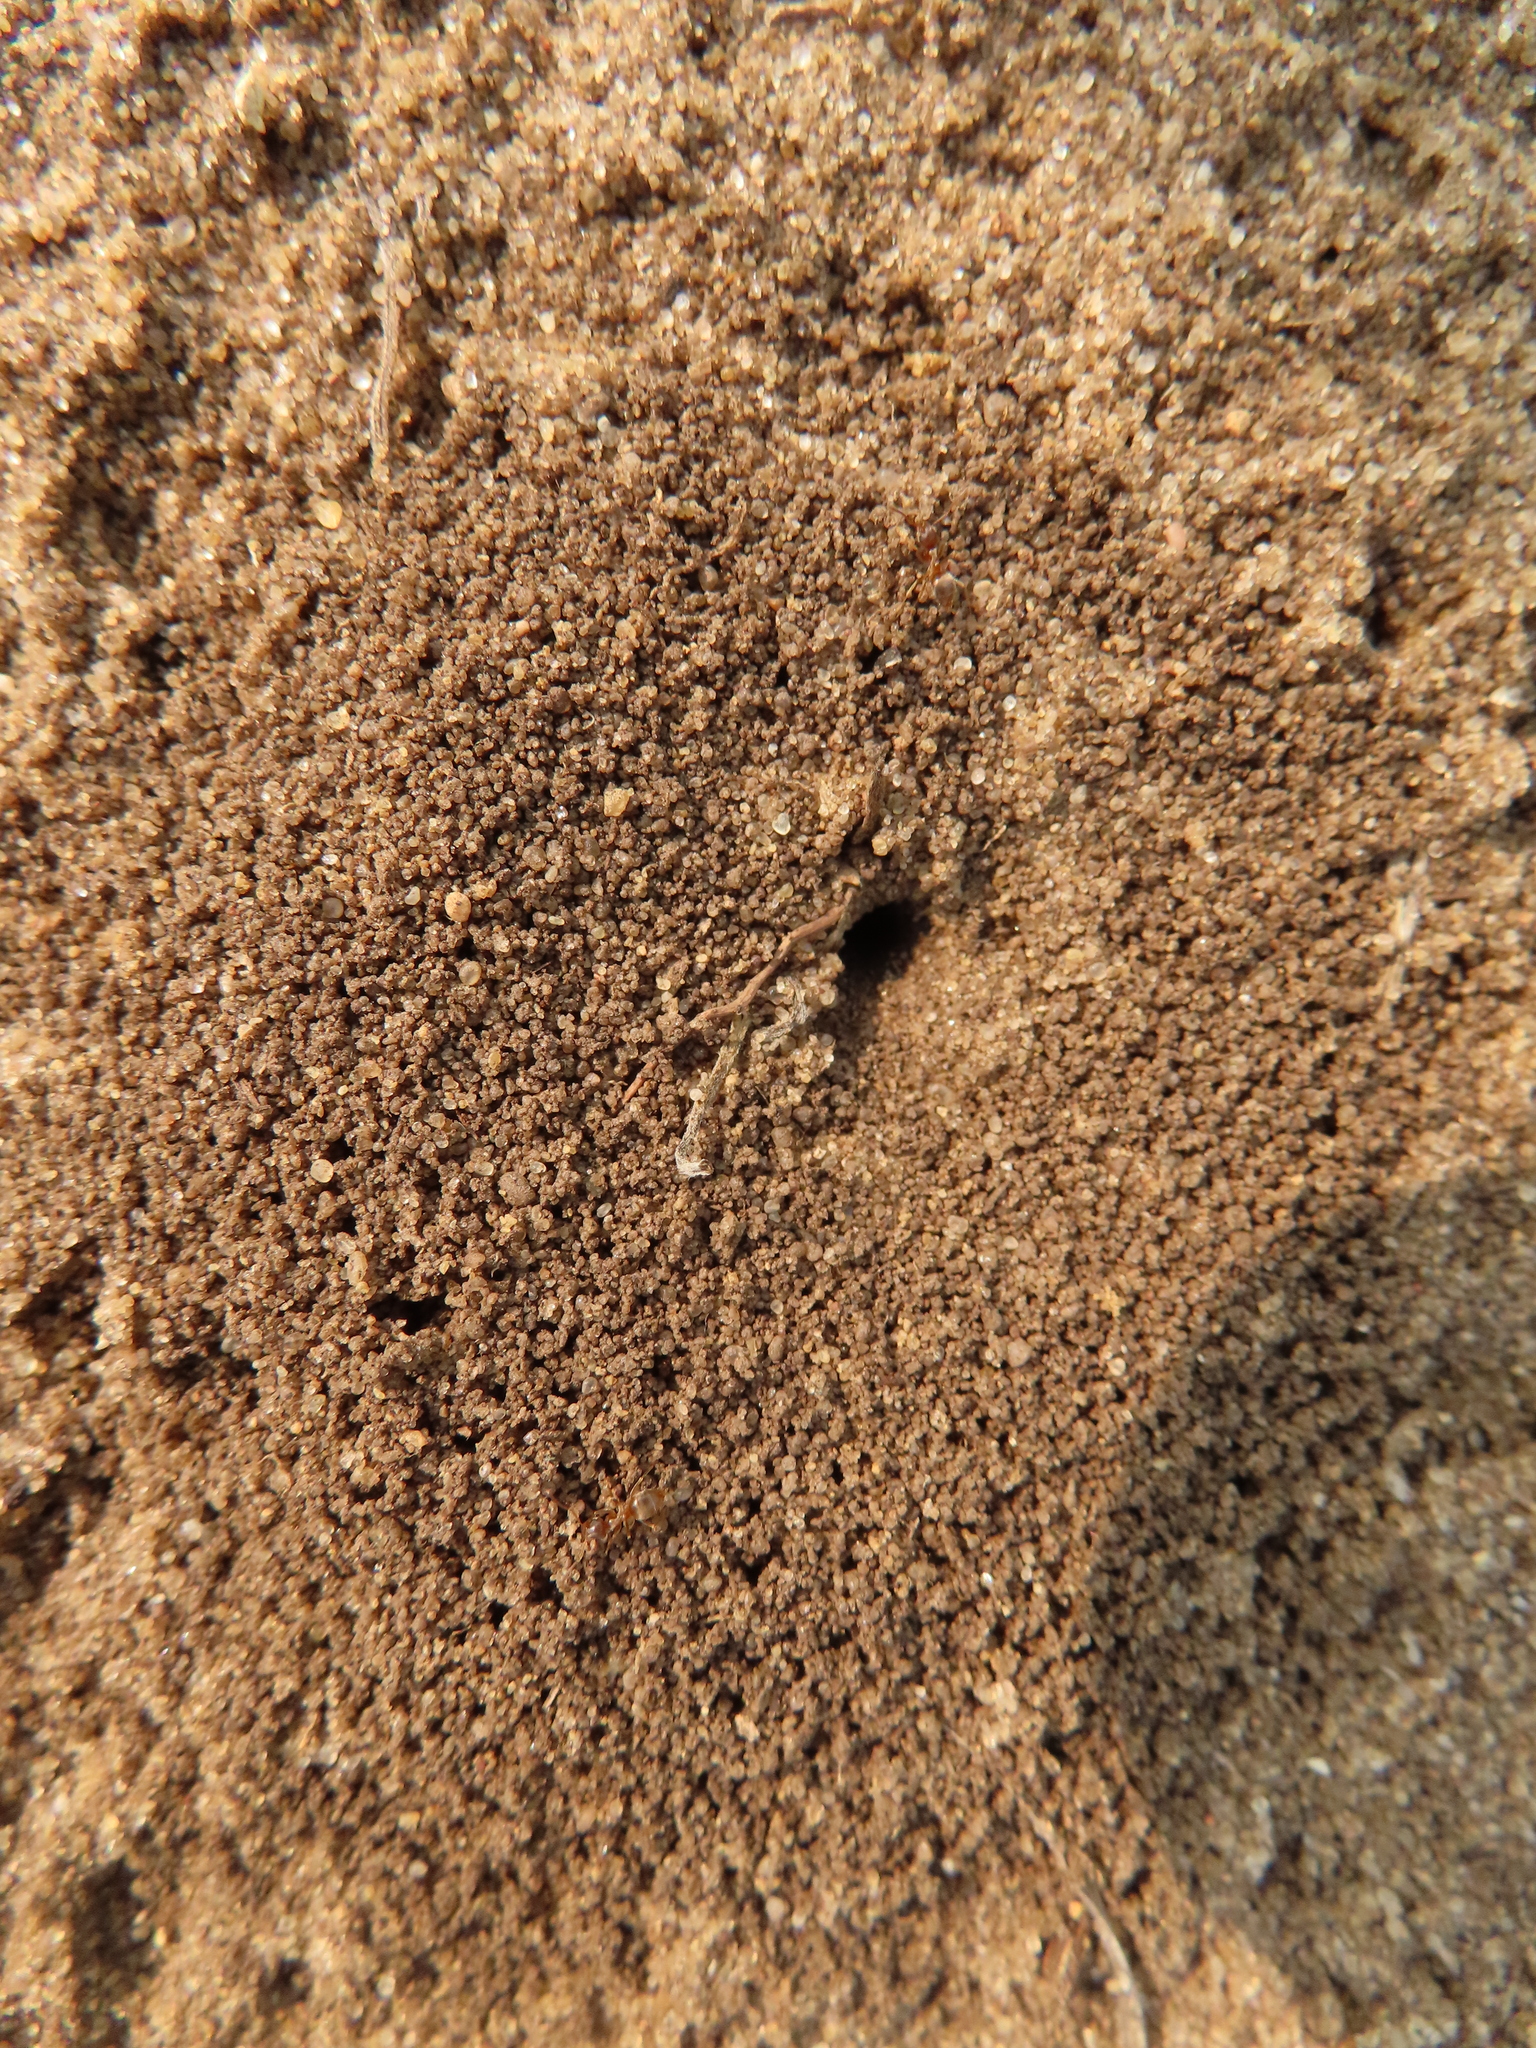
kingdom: Animalia
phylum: Arthropoda
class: Insecta
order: Hymenoptera
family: Formicidae
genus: Lasius
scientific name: Lasius neoniger
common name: Turfgrass ant
